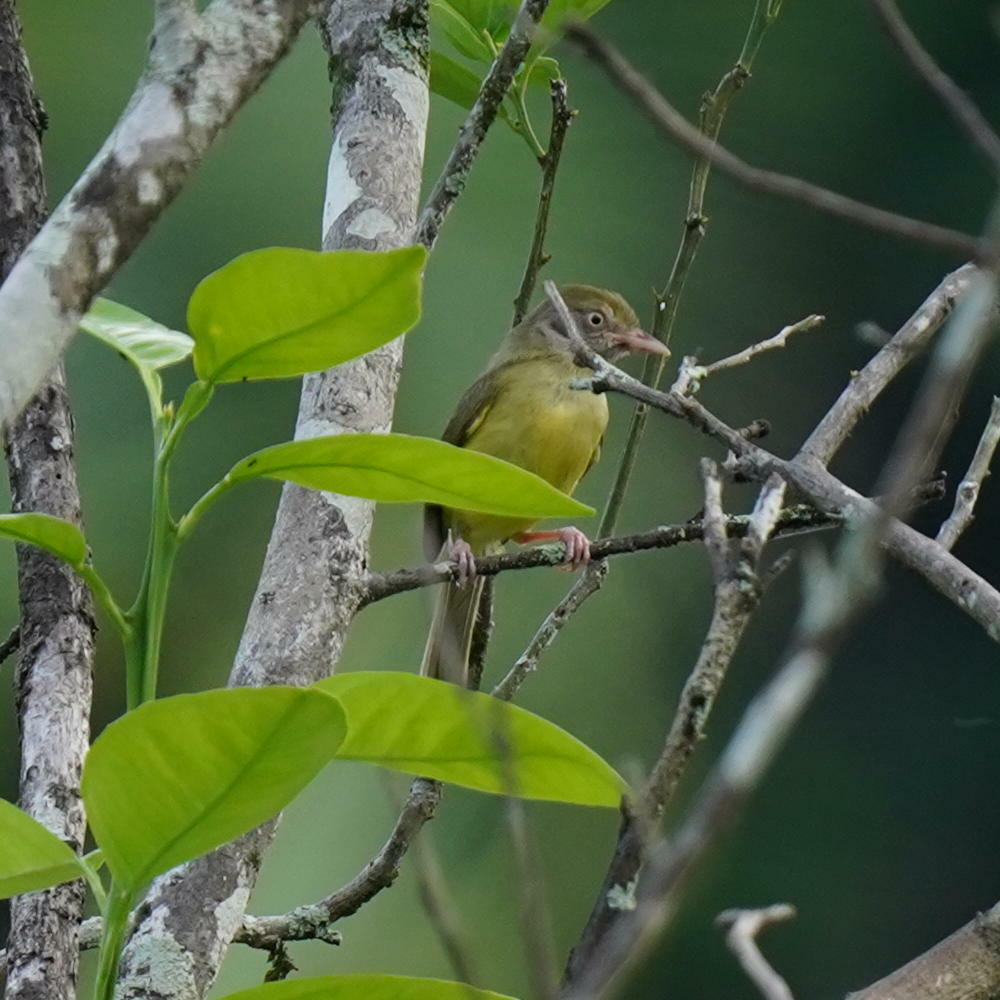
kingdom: Animalia
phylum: Chordata
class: Aves
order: Passeriformes
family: Vireonidae
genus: Hylophilus
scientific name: Hylophilus flavipes
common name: Scrub greenlet
